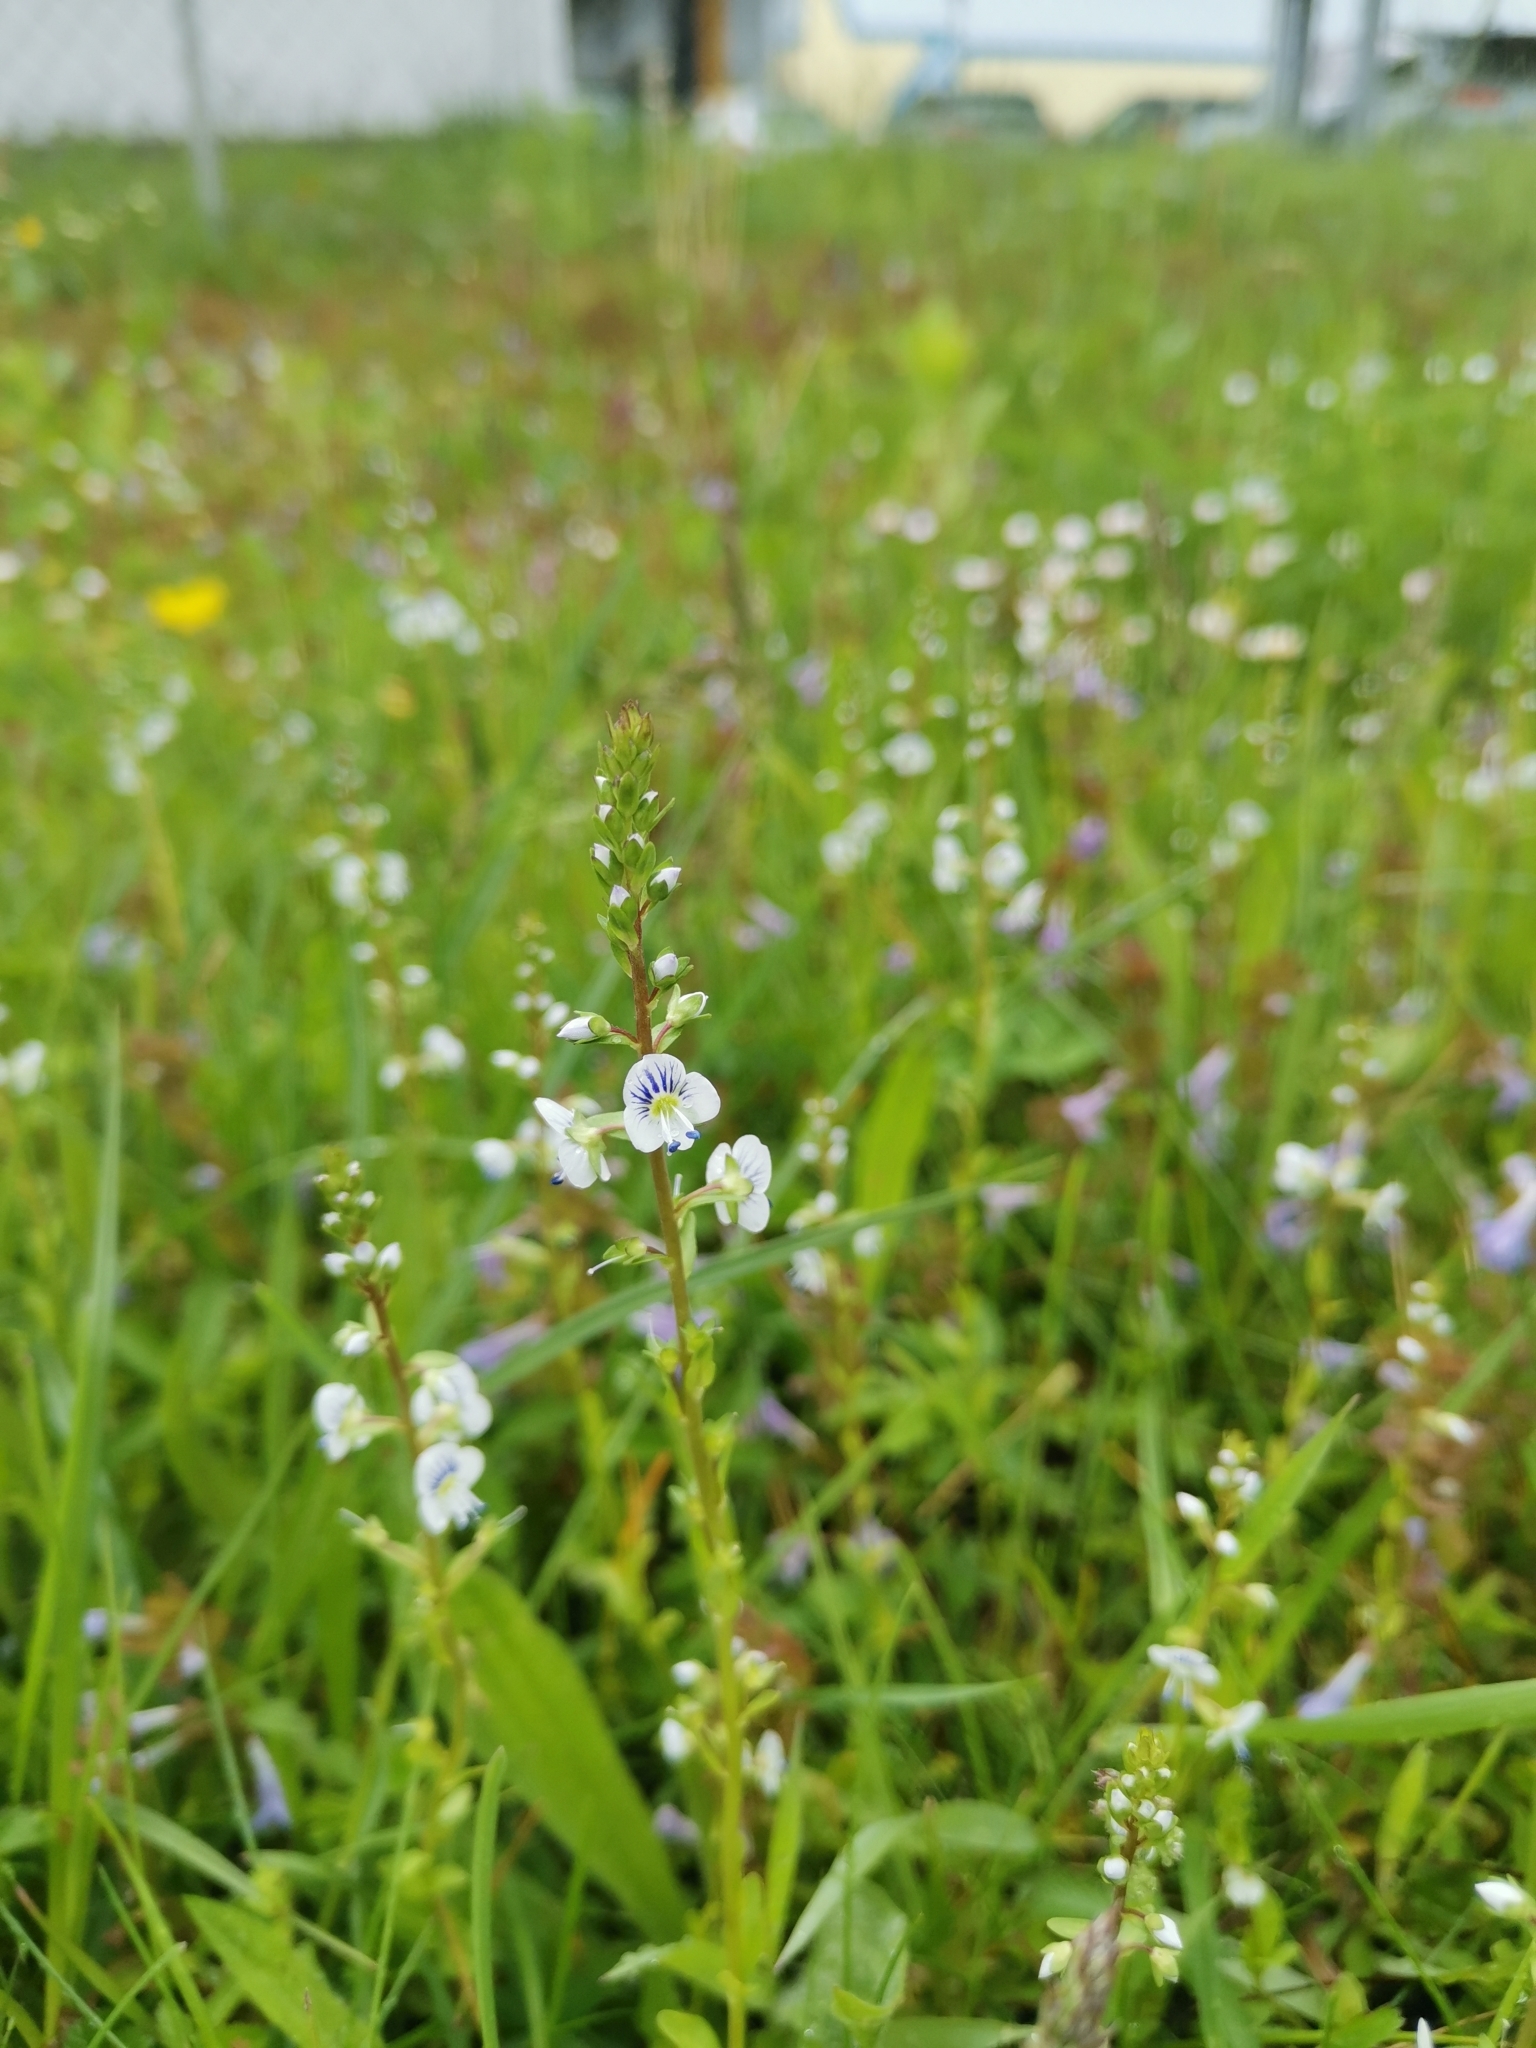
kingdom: Plantae
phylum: Tracheophyta
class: Magnoliopsida
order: Lamiales
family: Plantaginaceae
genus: Veronica
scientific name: Veronica serpyllifolia
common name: Thyme-leaved speedwell
